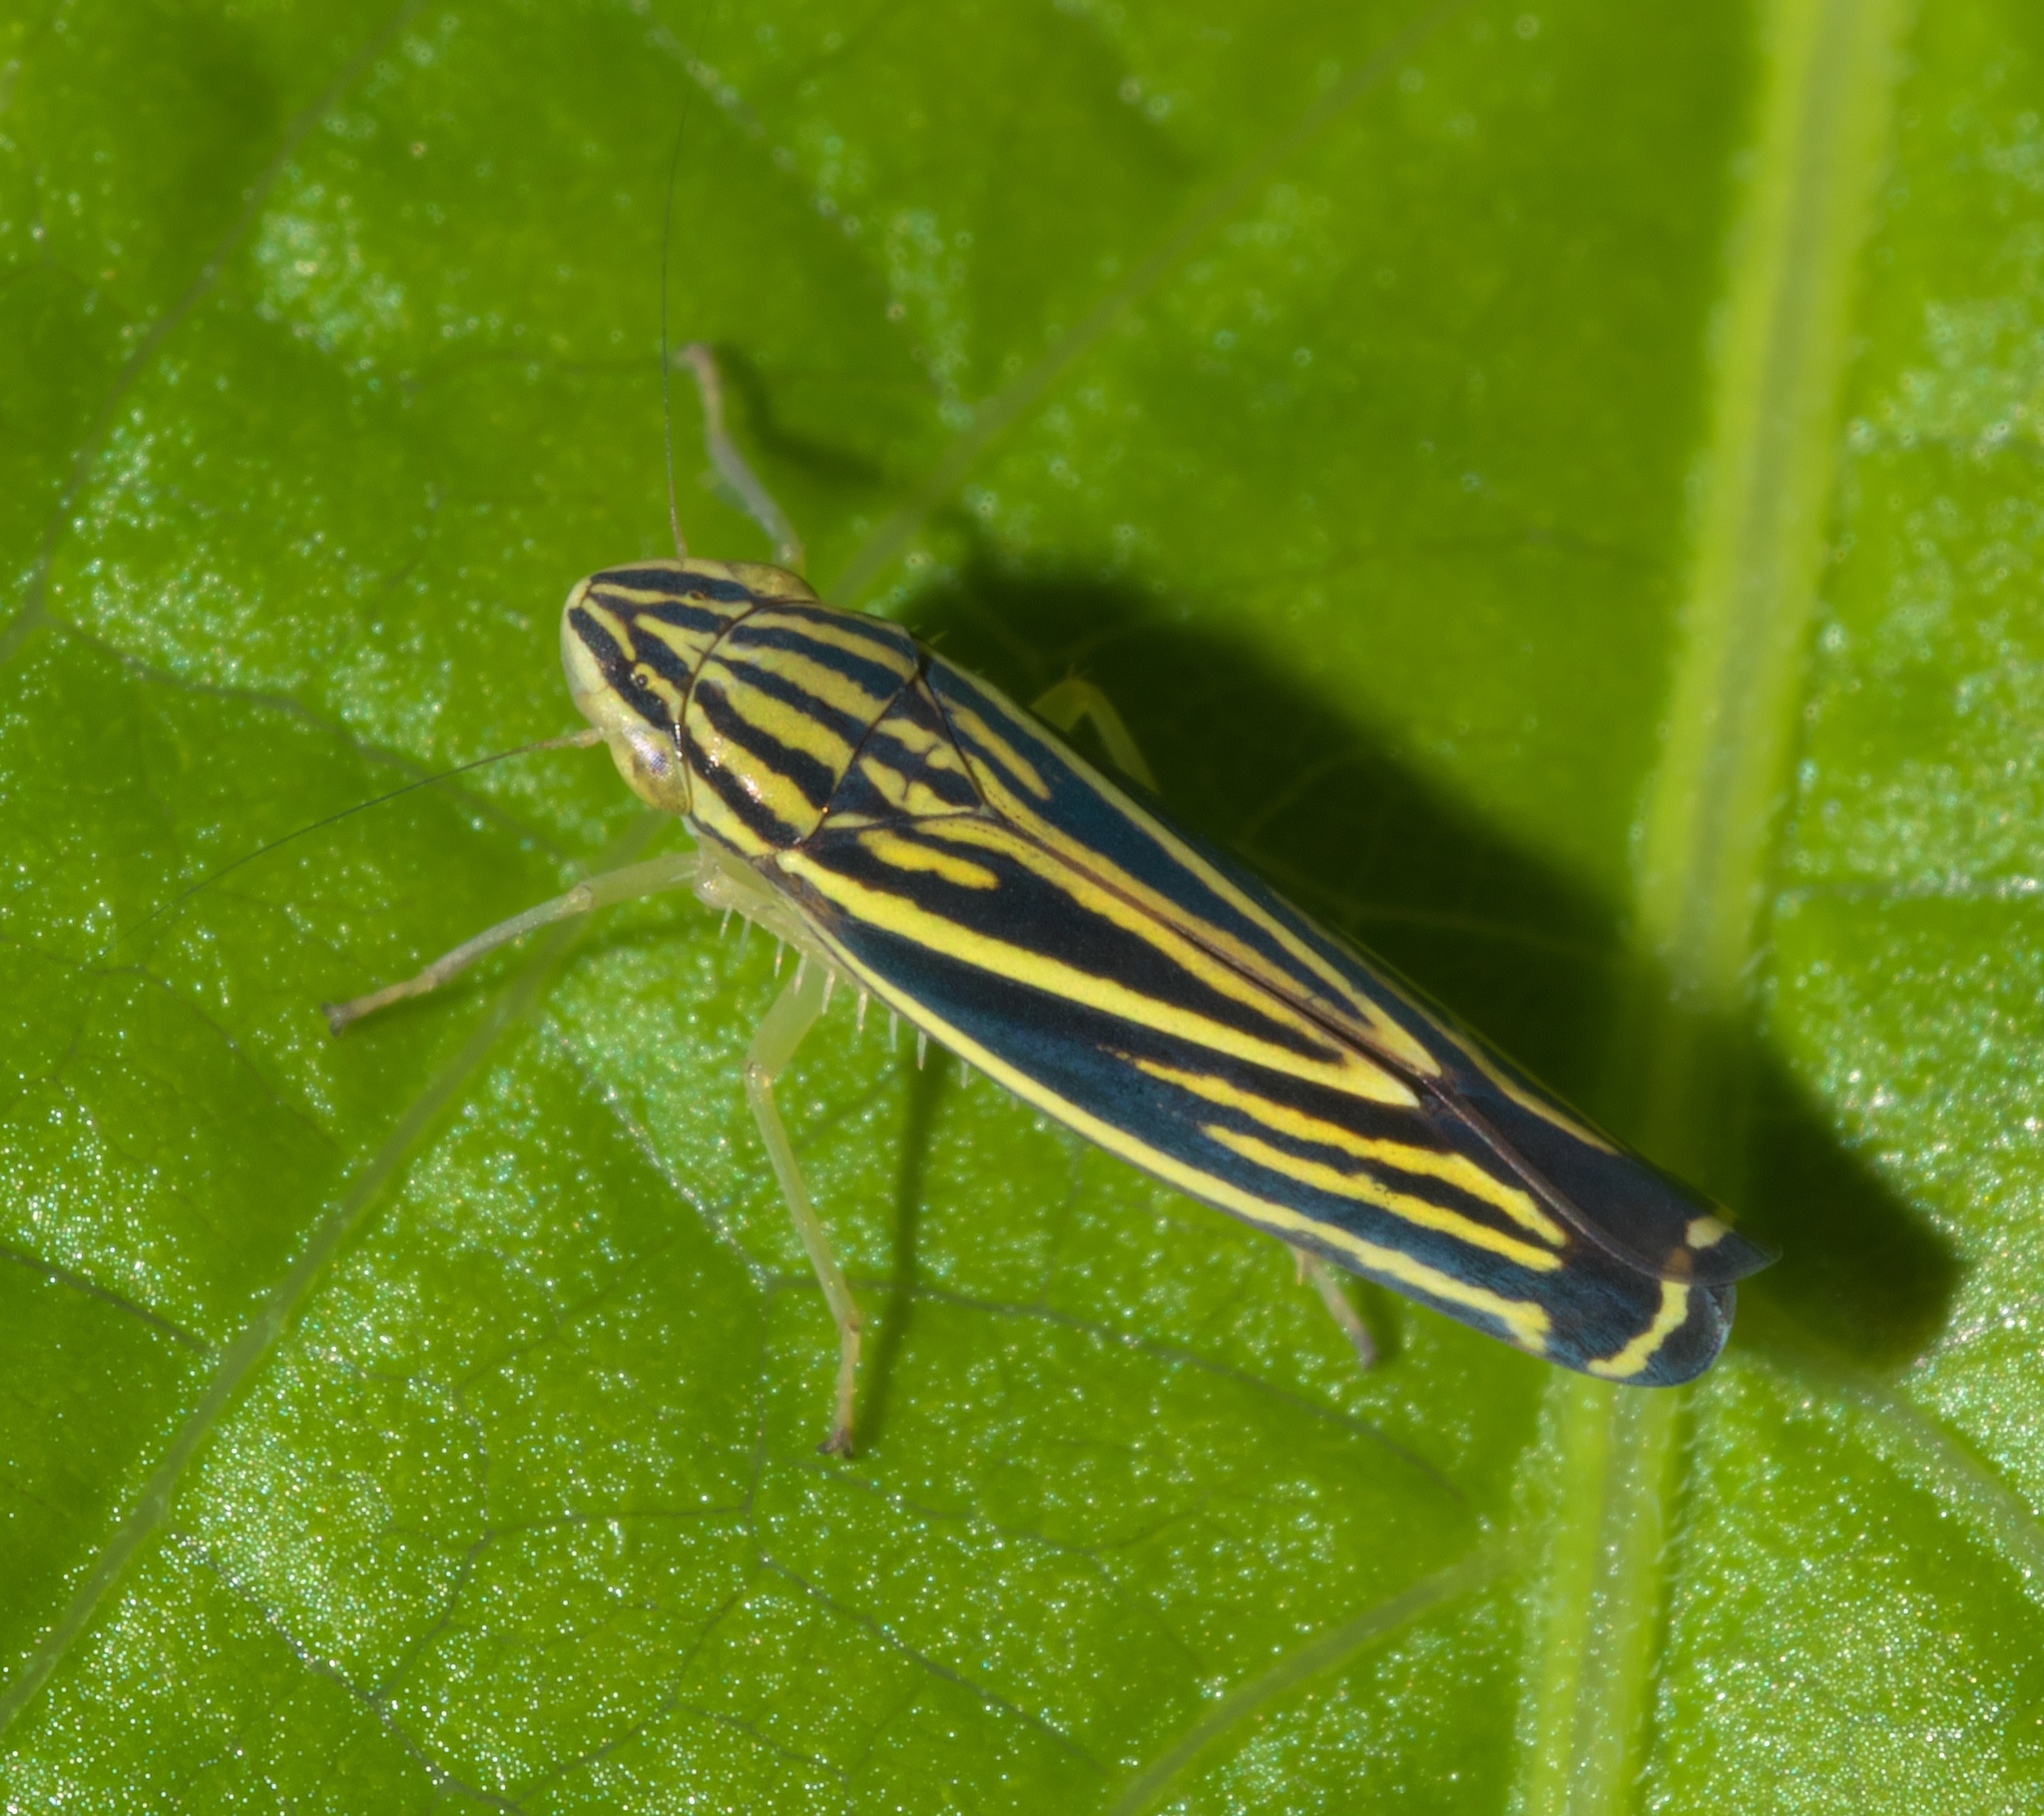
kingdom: Animalia
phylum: Arthropoda
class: Insecta
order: Hemiptera
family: Cicadellidae
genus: Sibovia
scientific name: Sibovia occatoria
